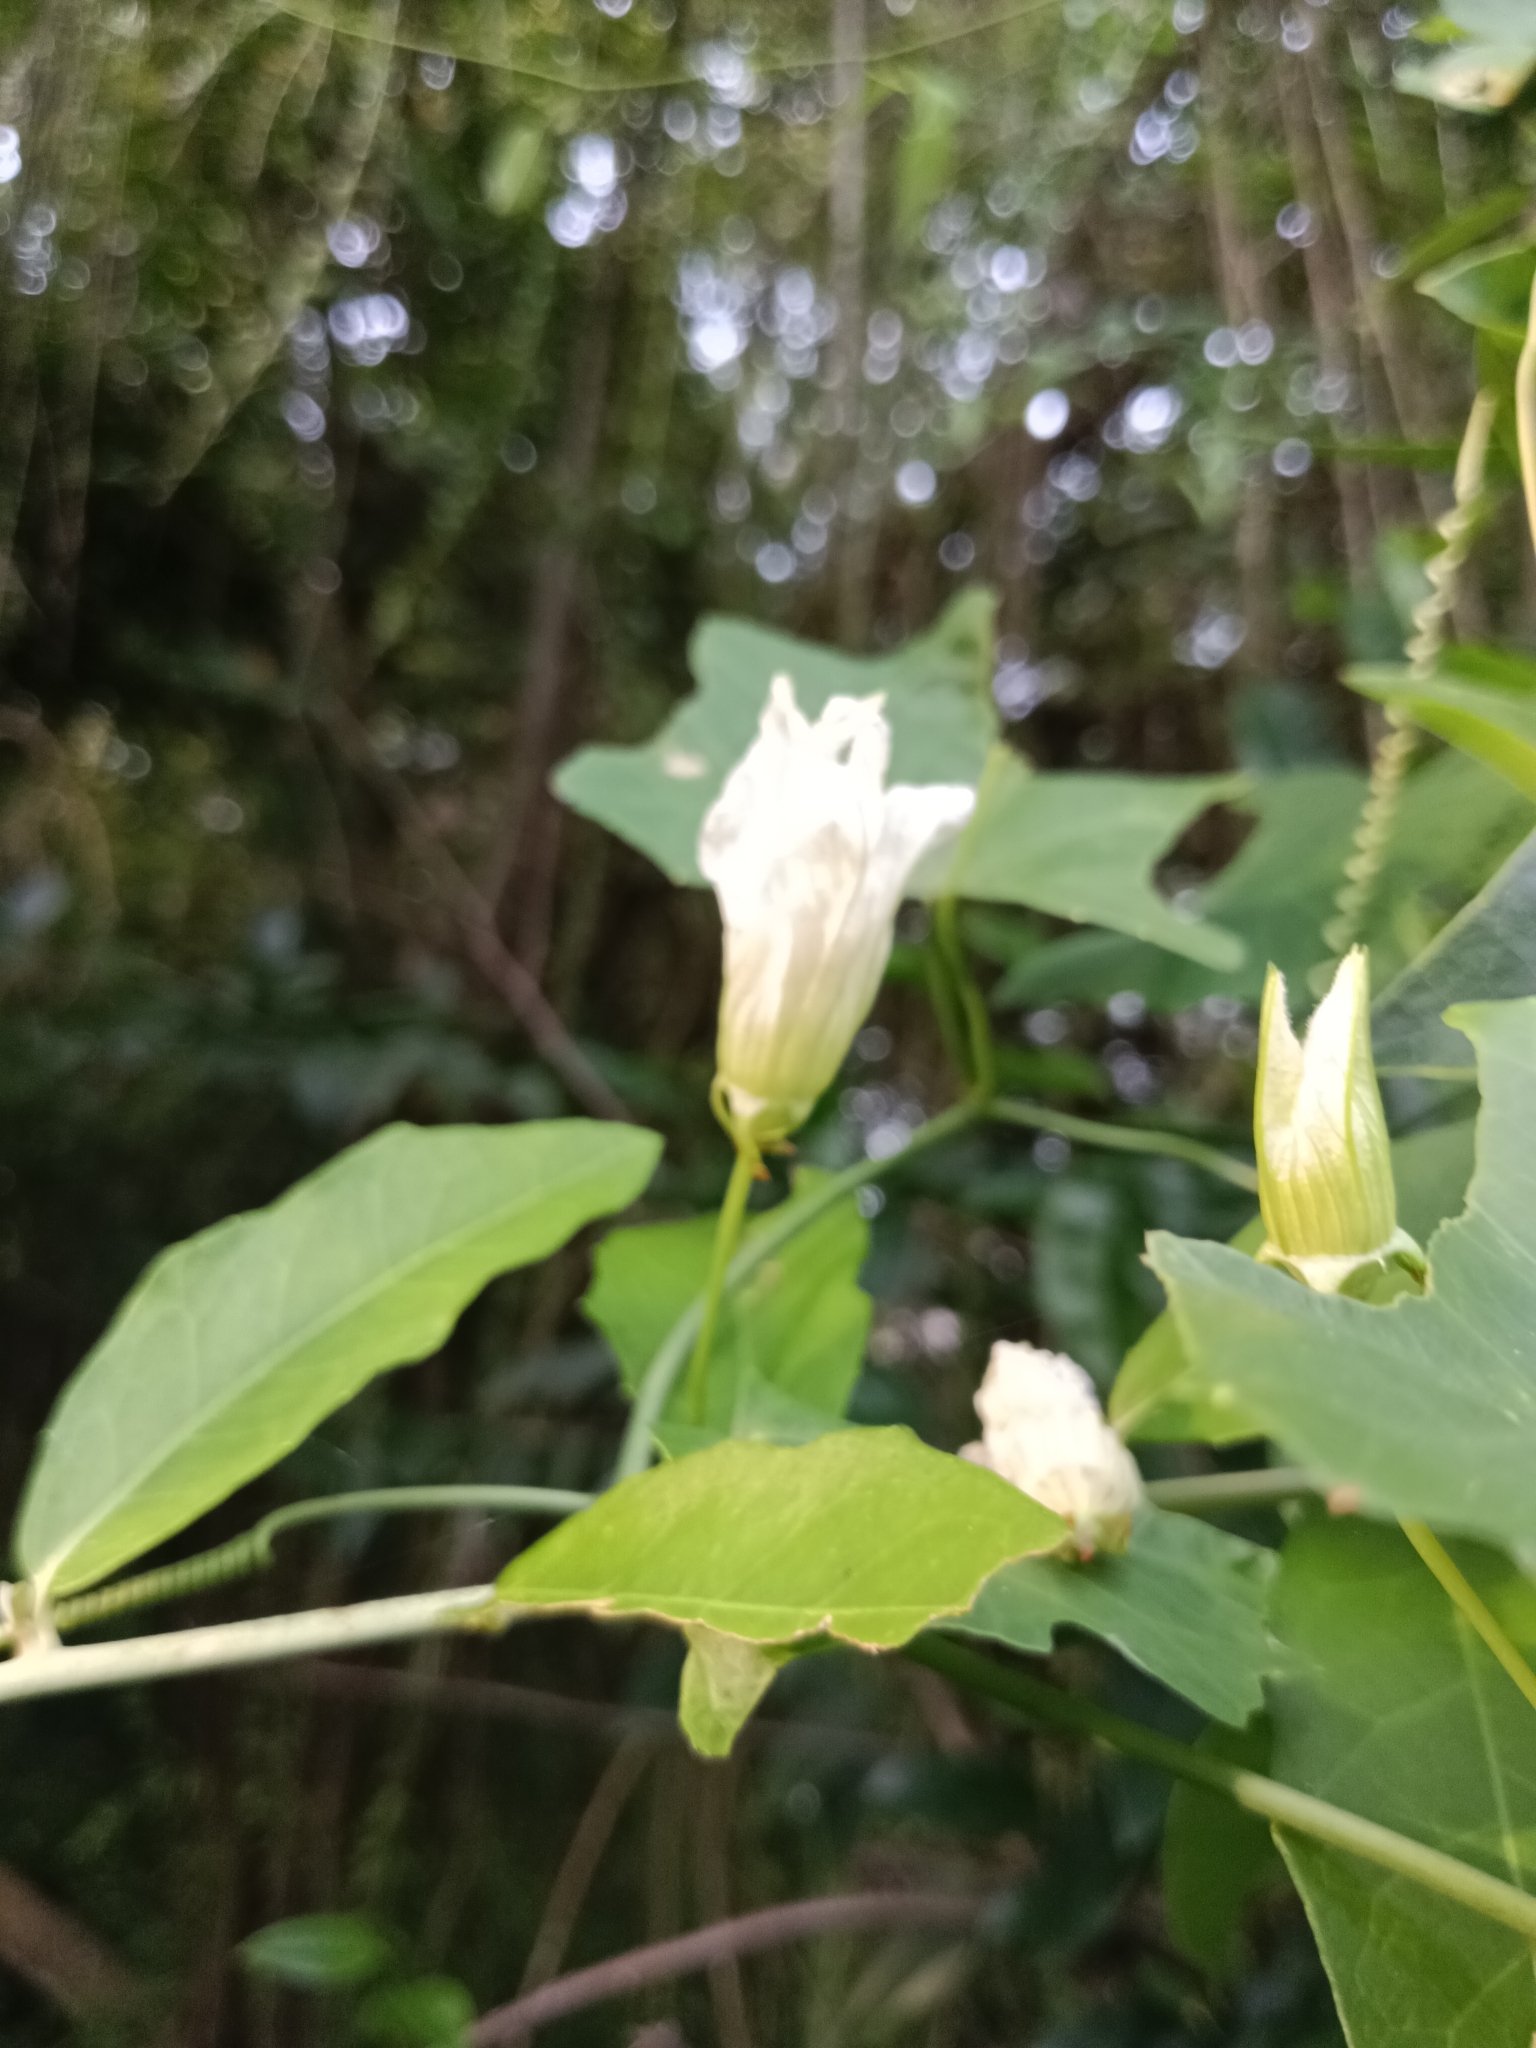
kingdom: Plantae
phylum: Tracheophyta
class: Magnoliopsida
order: Cucurbitales
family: Cucurbitaceae
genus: Coccinia
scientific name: Coccinia grandis
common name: Ivy gourd
